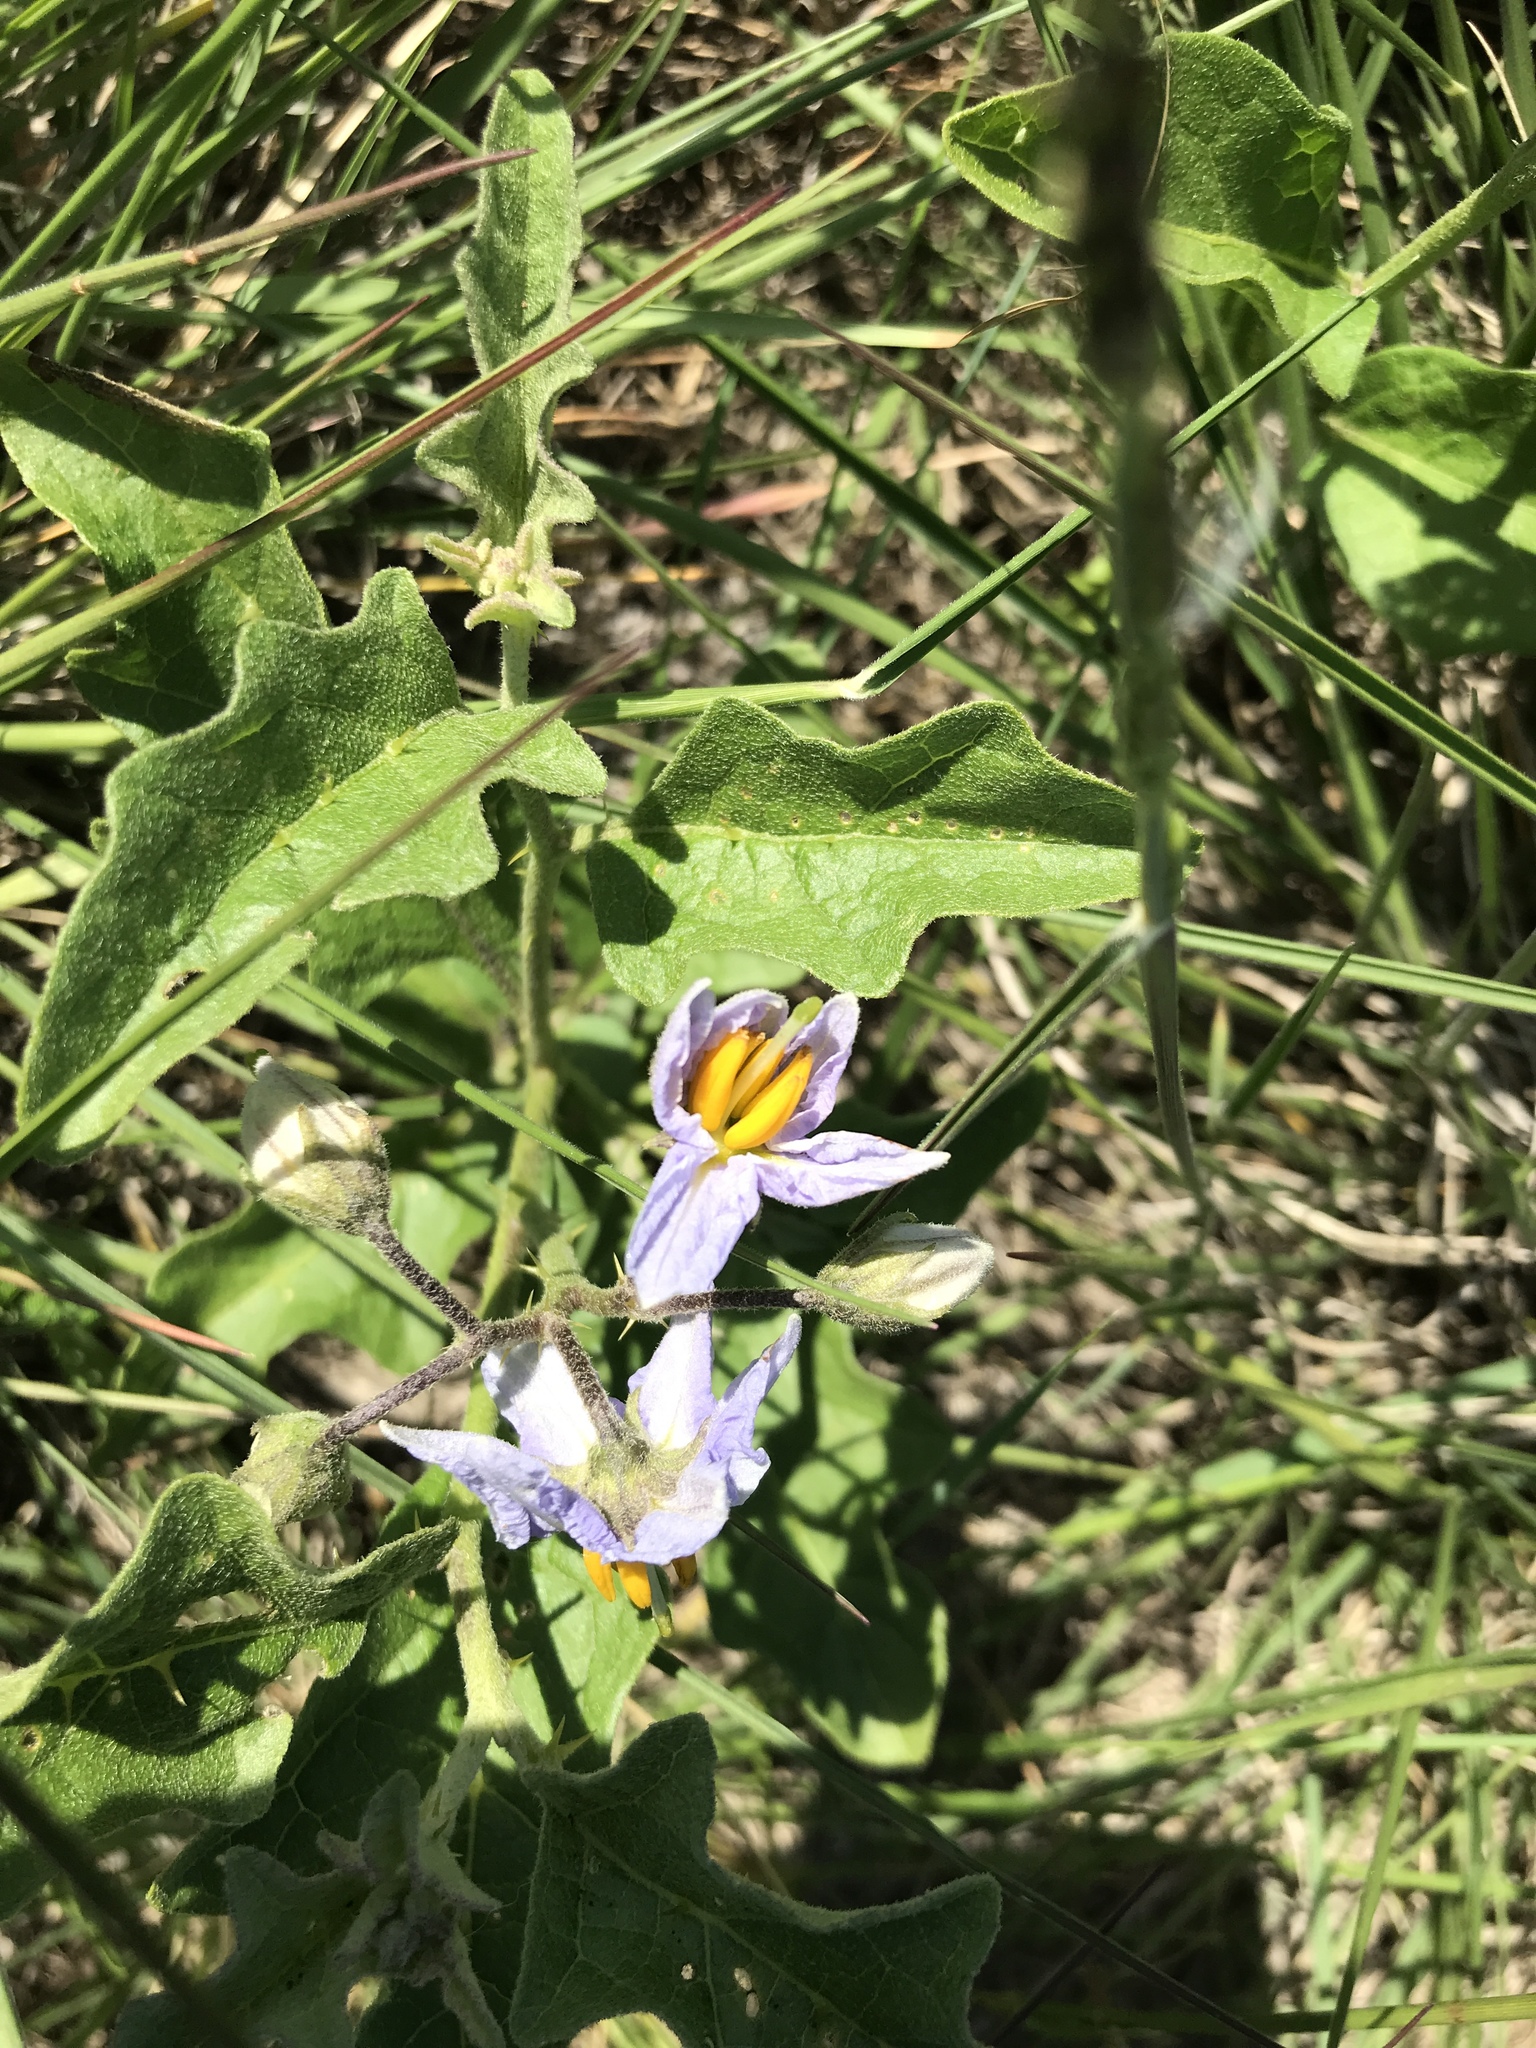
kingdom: Plantae
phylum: Tracheophyta
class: Magnoliopsida
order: Solanales
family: Solanaceae
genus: Solanum
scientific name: Solanum dimidiatum
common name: Carolina horse-nettle
